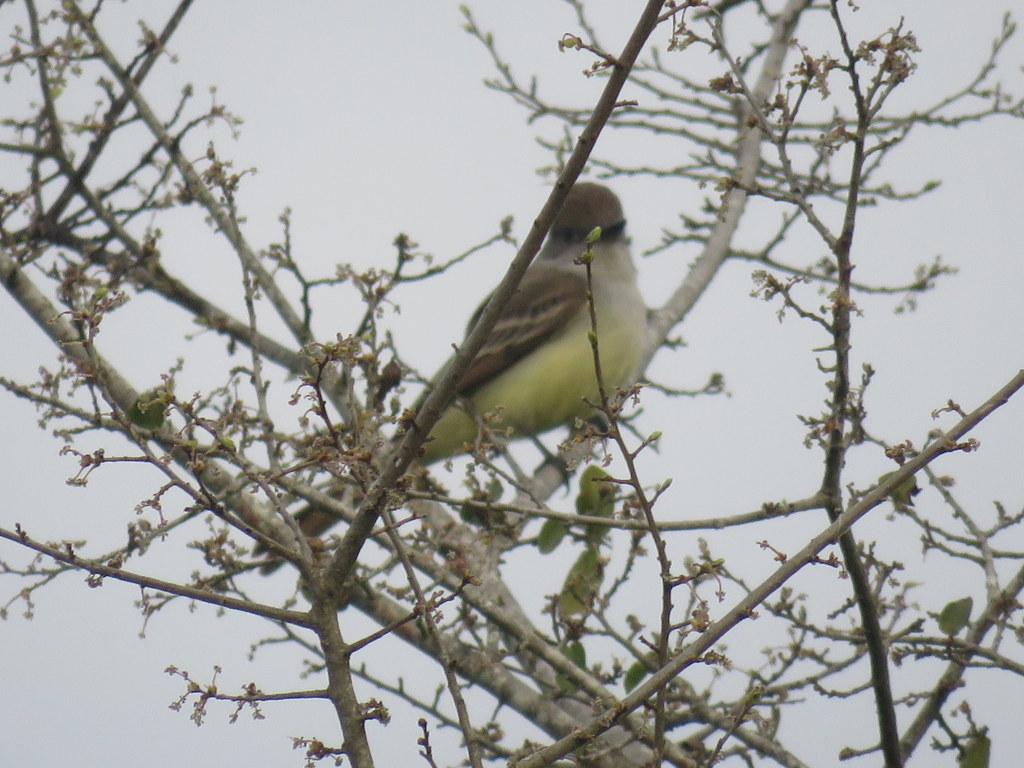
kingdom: Animalia
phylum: Chordata
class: Aves
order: Passeriformes
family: Tyrannidae
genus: Myiarchus
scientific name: Myiarchus tyrannulus
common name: Brown-crested flycatcher
